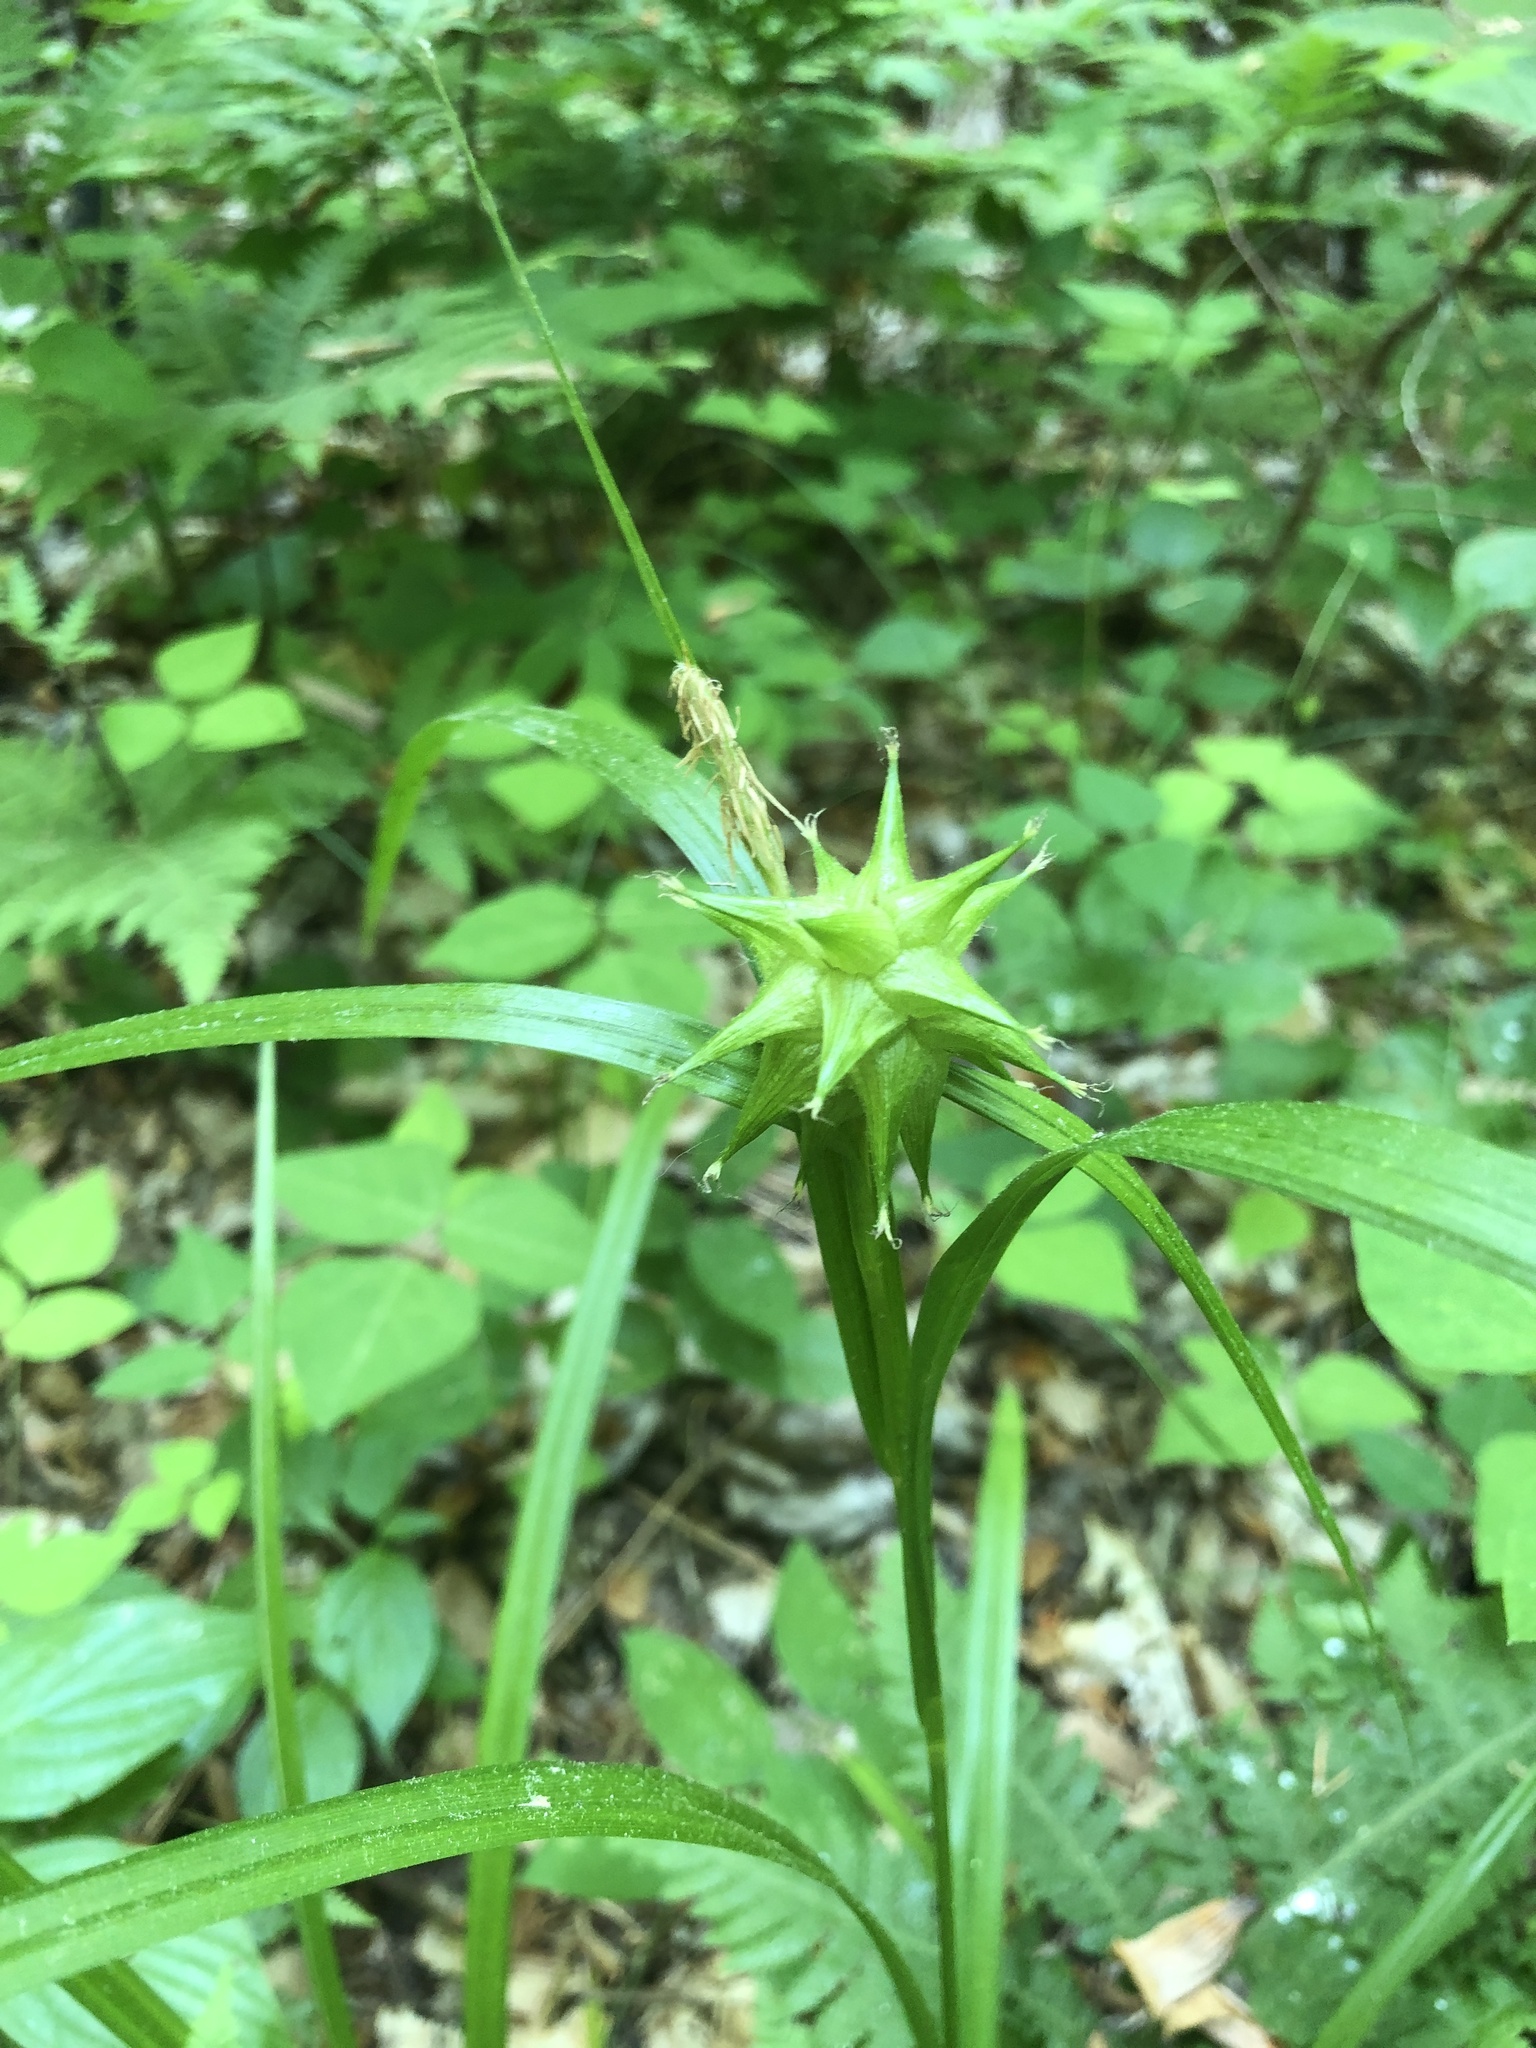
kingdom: Plantae
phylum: Tracheophyta
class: Liliopsida
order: Poales
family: Cyperaceae
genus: Carex
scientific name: Carex grayi
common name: Asa gray's sedge
